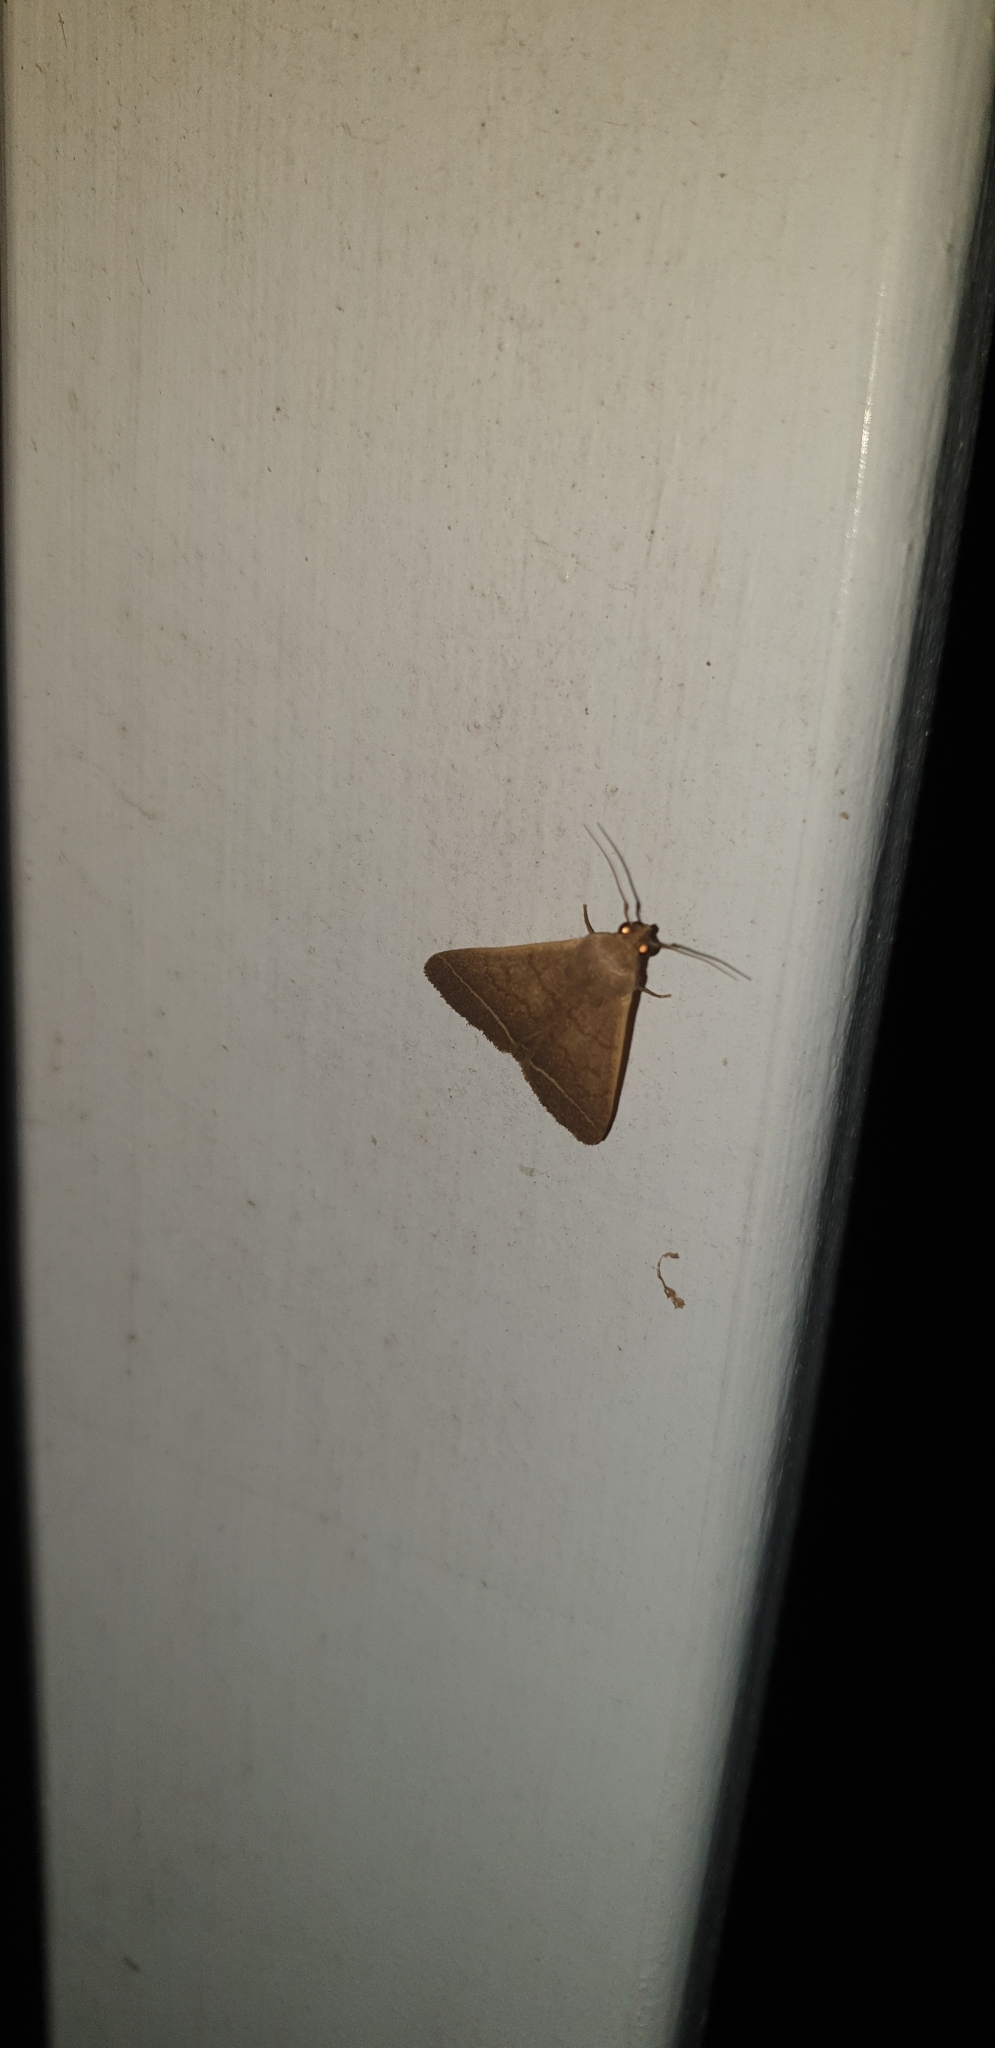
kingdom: Animalia
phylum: Arthropoda
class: Insecta
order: Lepidoptera
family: Erebidae
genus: Simplicia
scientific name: Simplicia cornicalis
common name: Tiki hut litter moth
